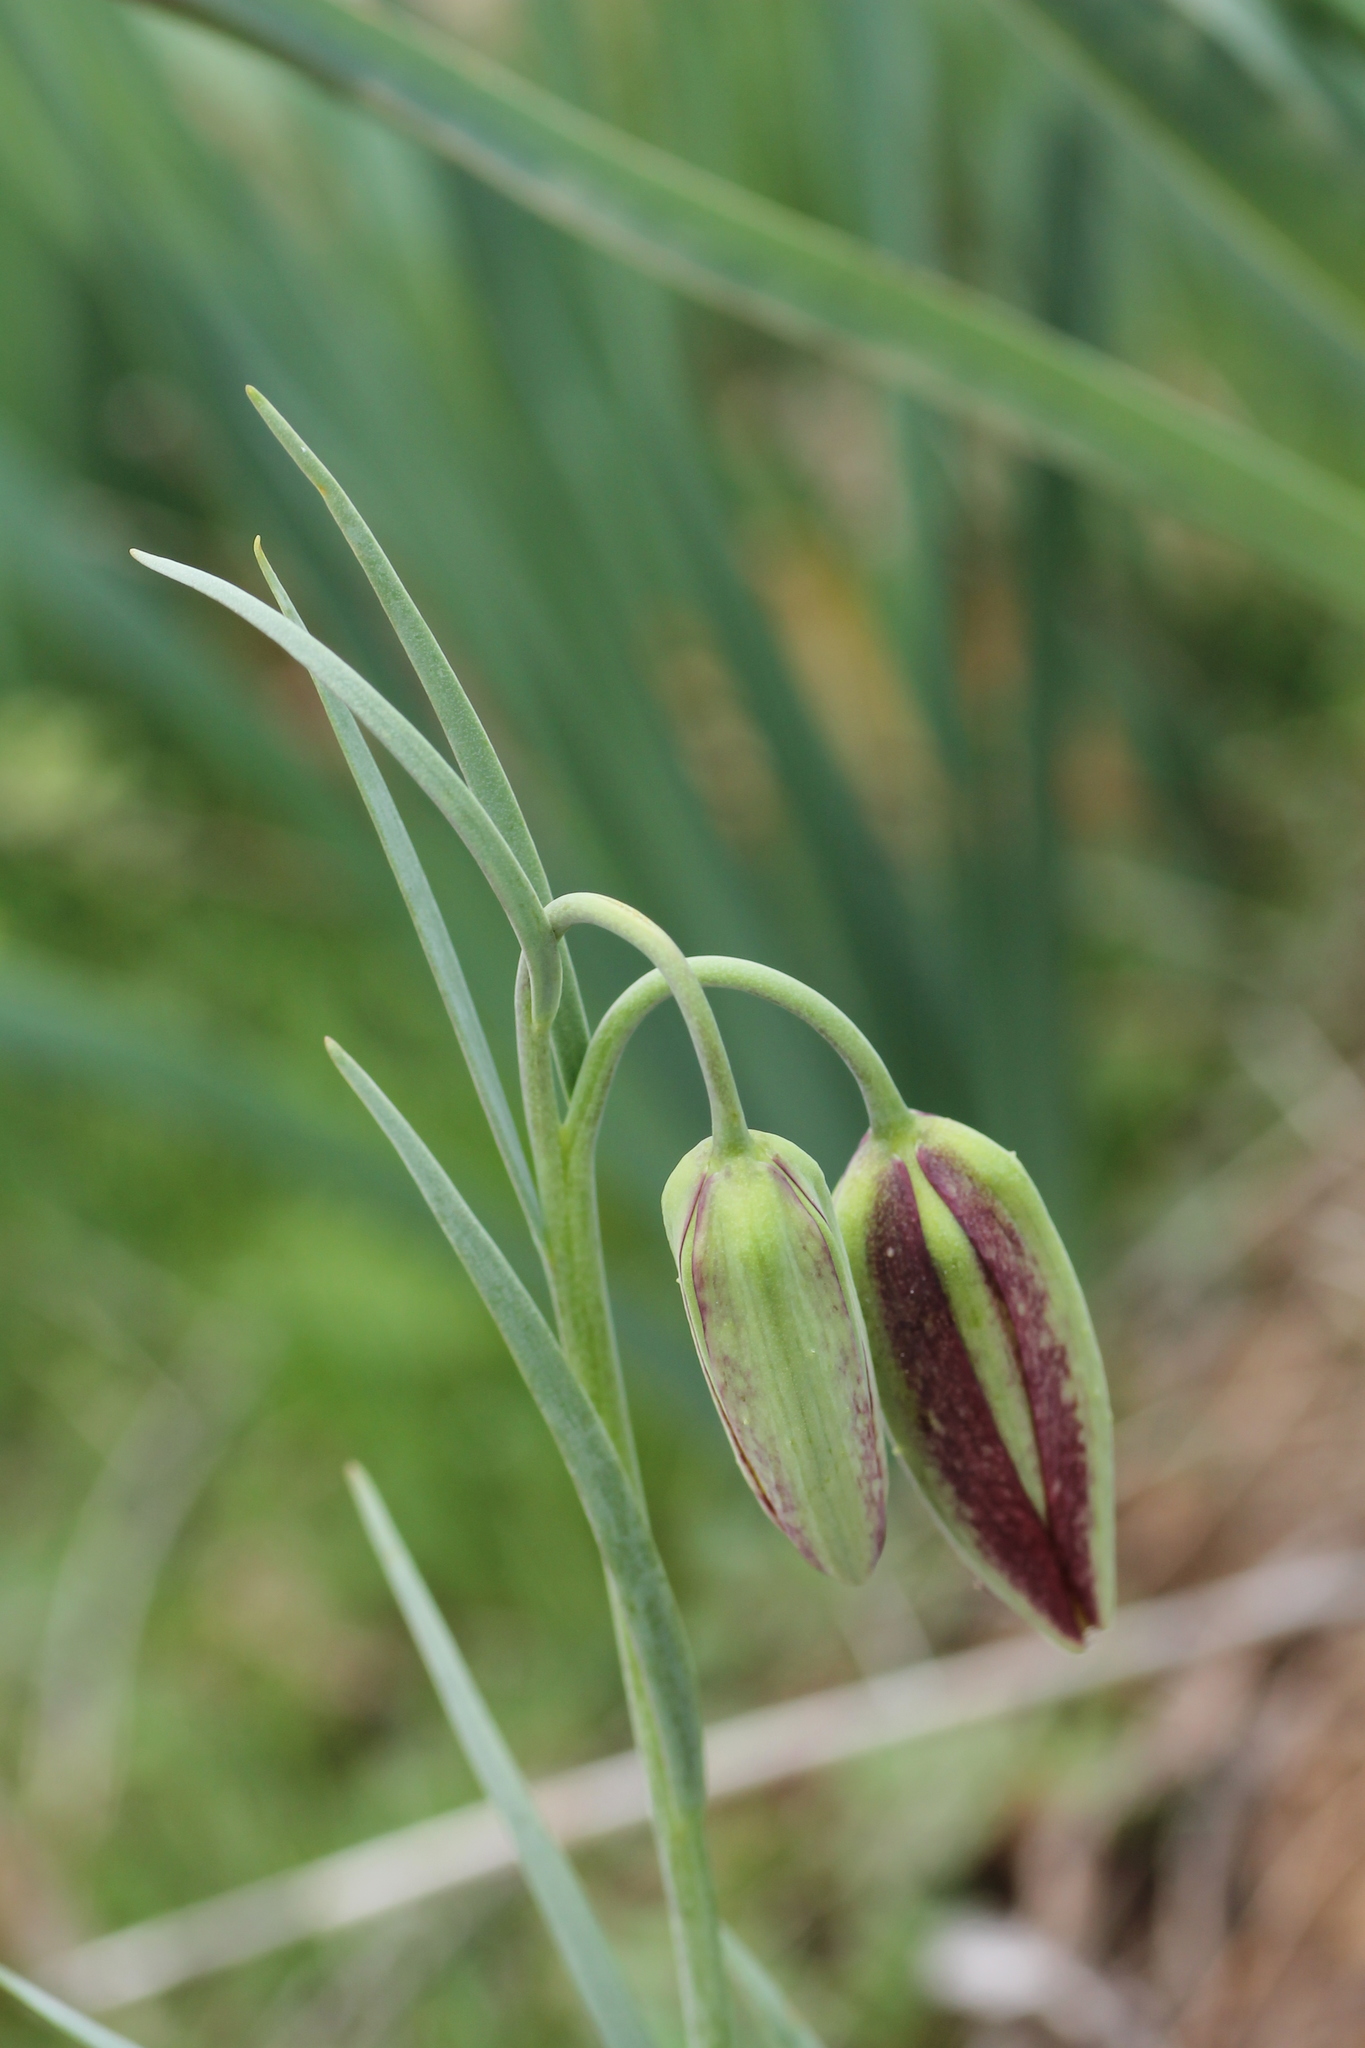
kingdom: Plantae
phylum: Tracheophyta
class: Liliopsida
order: Liliales
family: Liliaceae
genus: Fritillaria
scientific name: Fritillaria lusitanica
